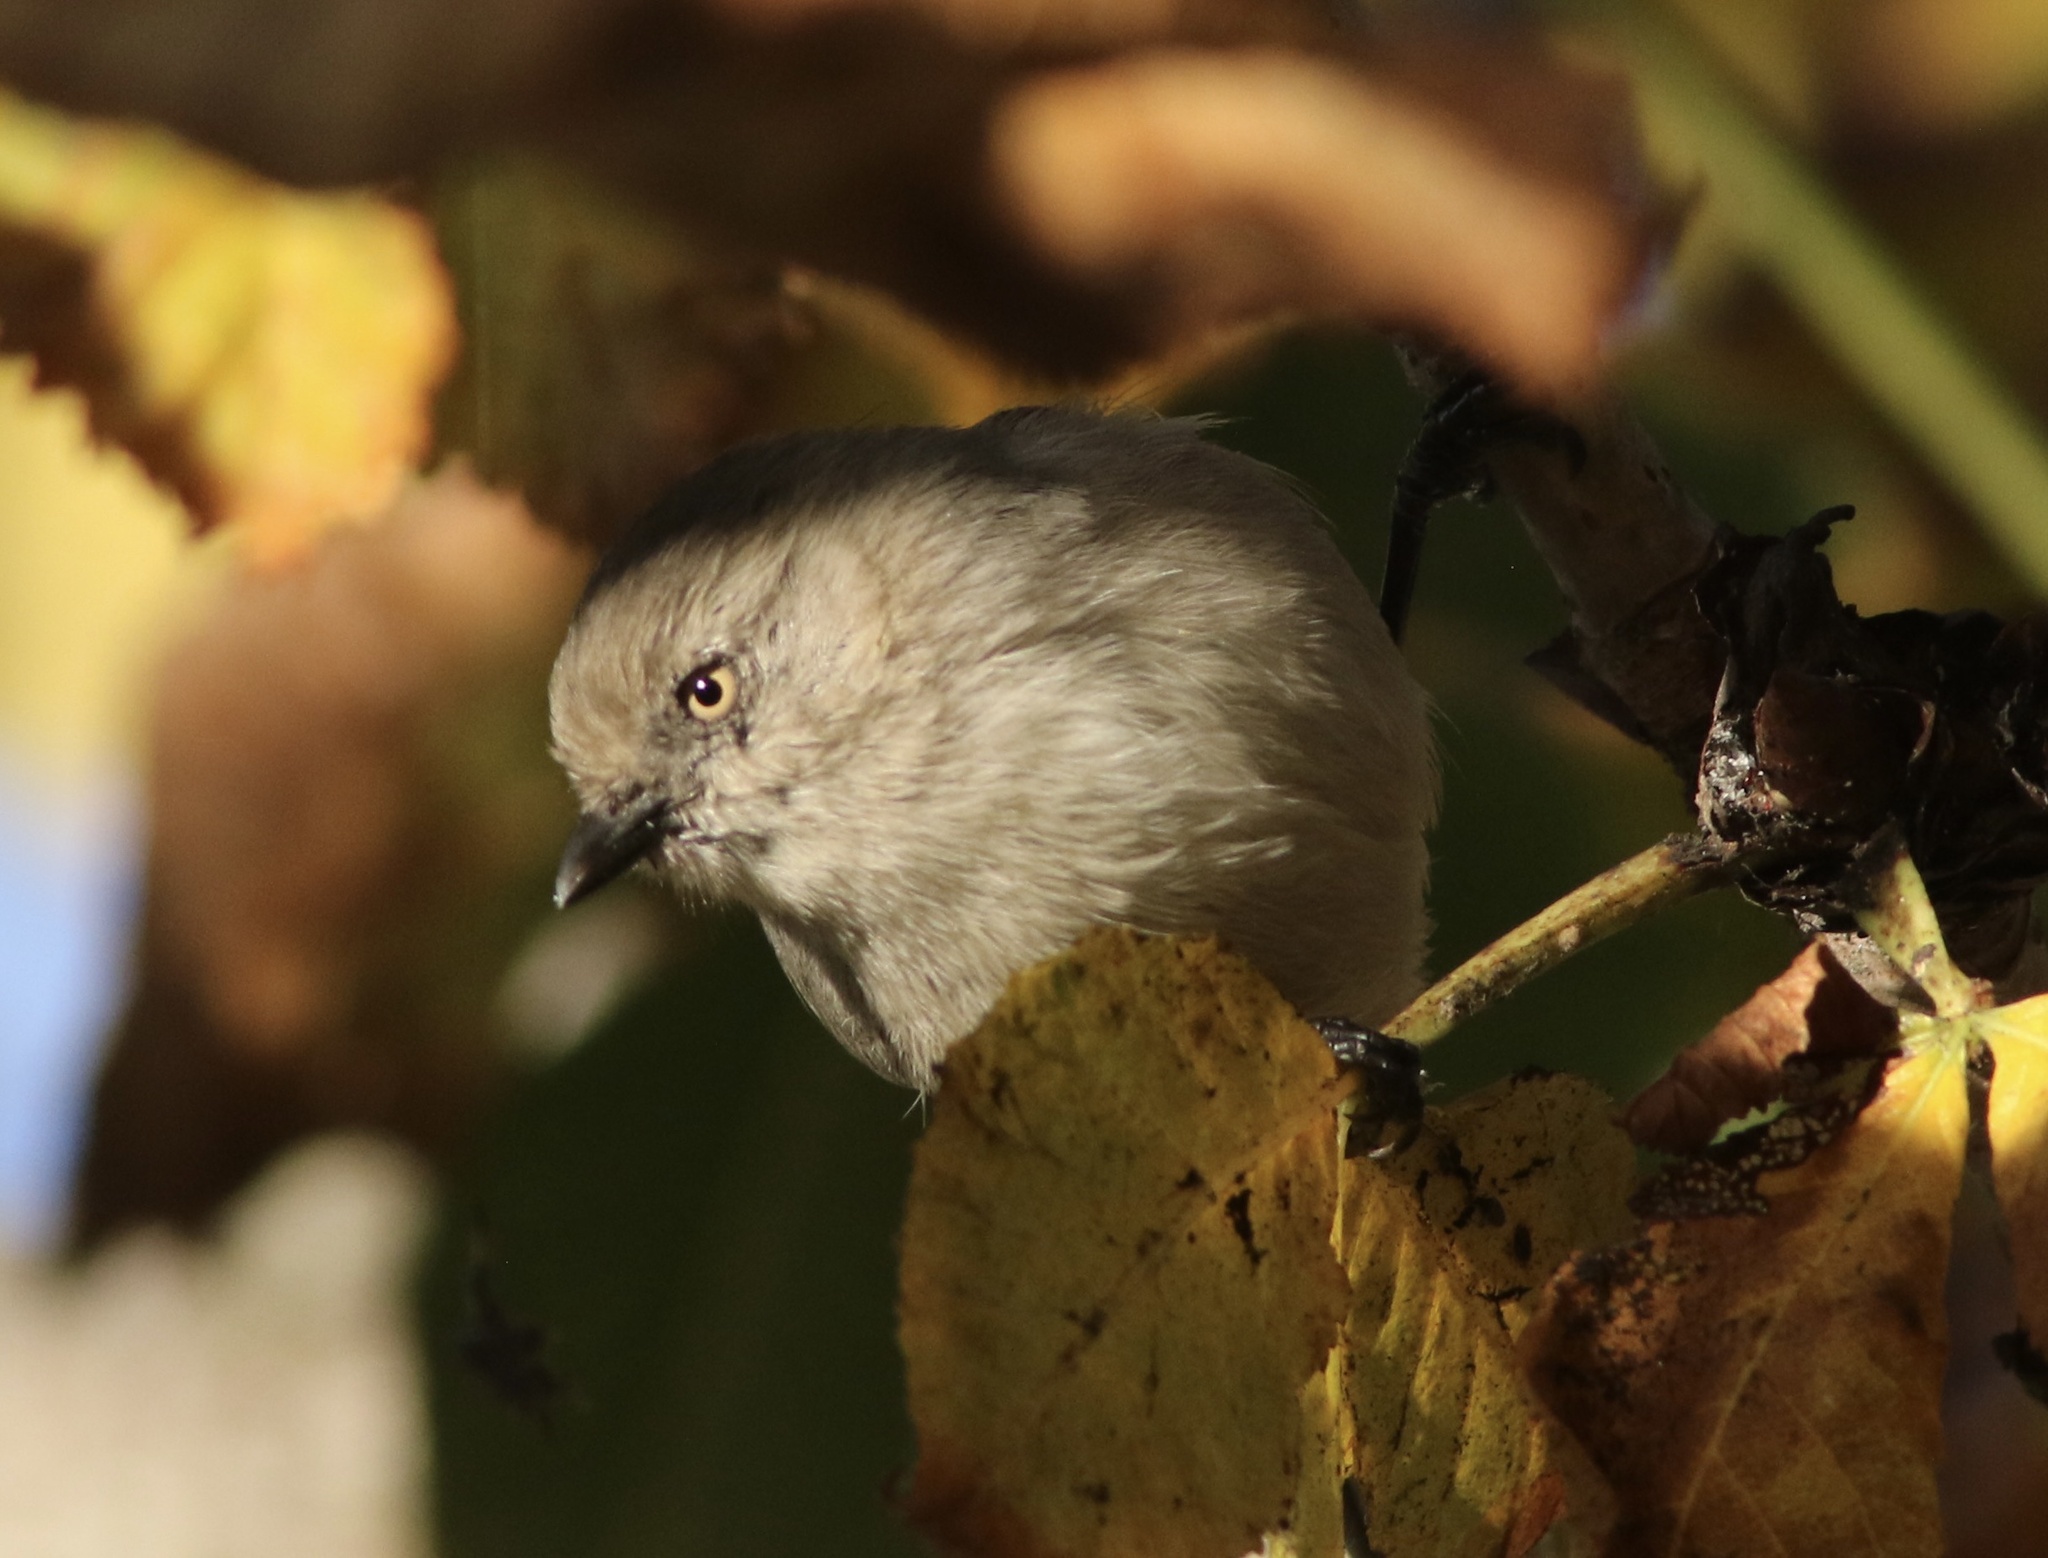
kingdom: Animalia
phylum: Chordata
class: Aves
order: Passeriformes
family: Aegithalidae
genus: Psaltriparus
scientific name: Psaltriparus minimus
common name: American bushtit
